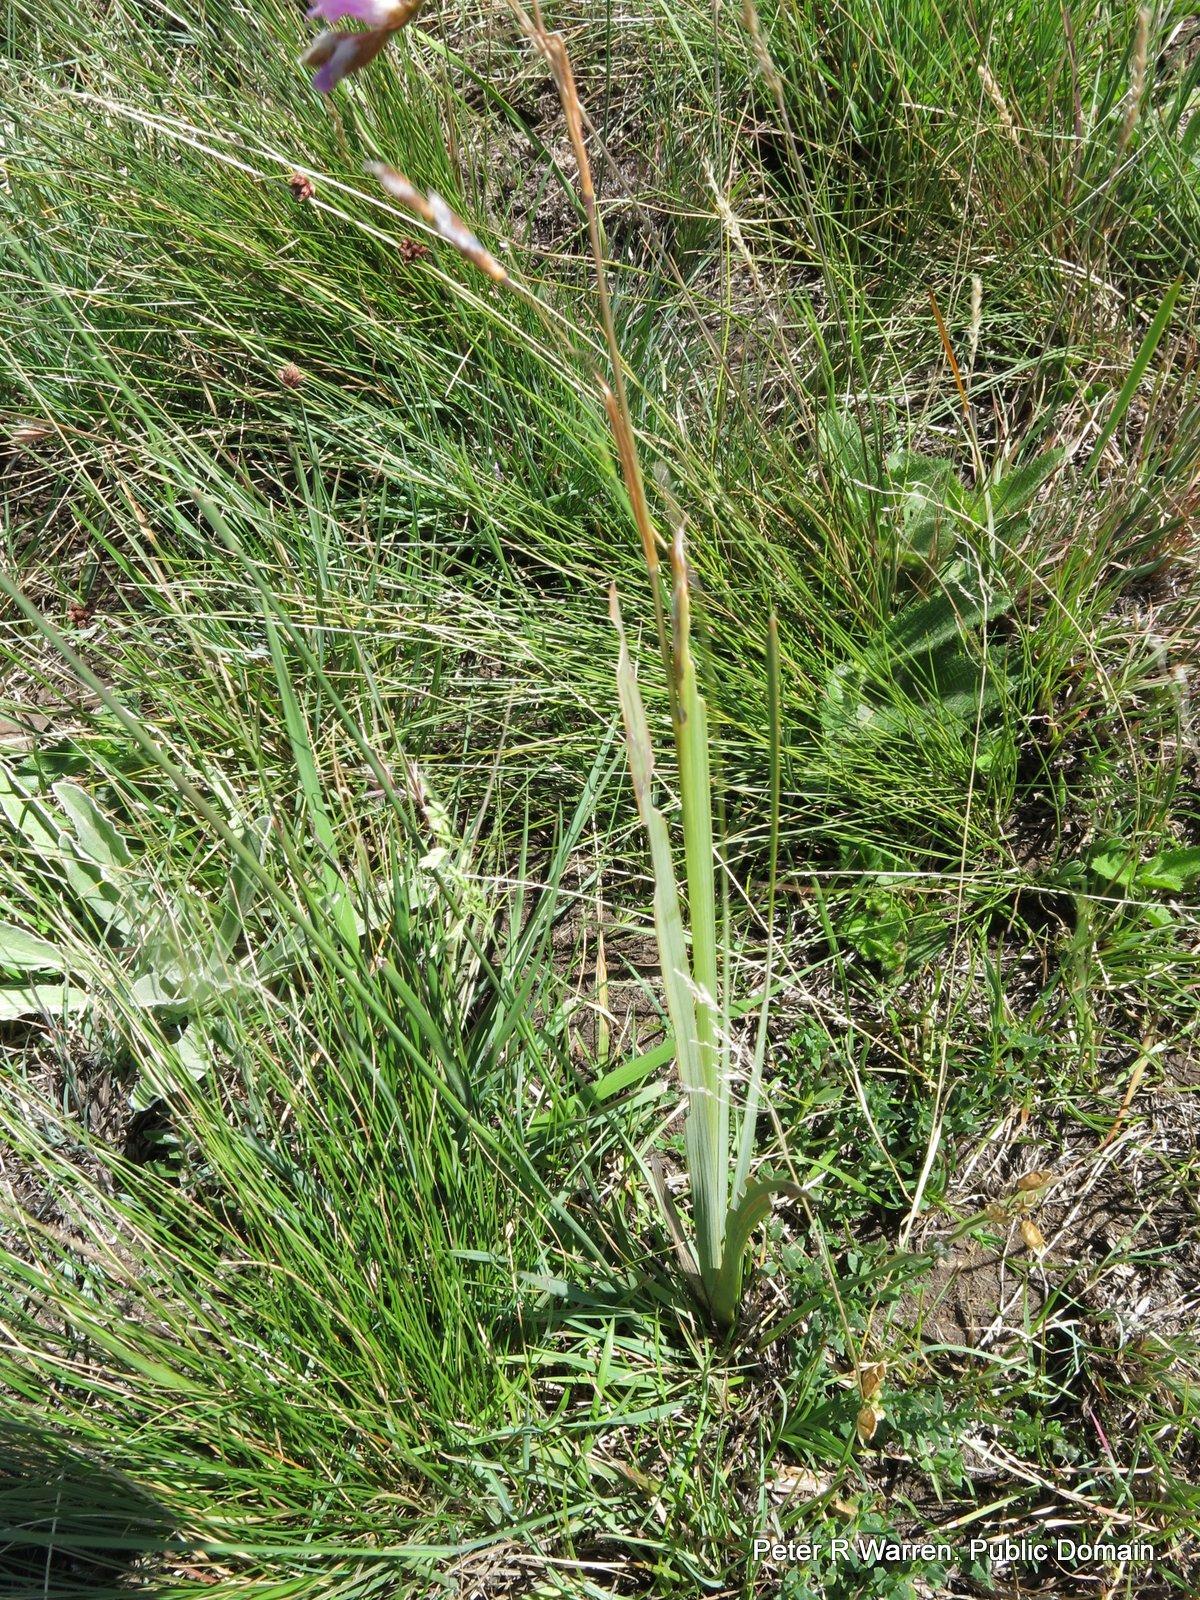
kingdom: Plantae
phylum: Tracheophyta
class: Liliopsida
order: Asparagales
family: Iridaceae
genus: Dierama
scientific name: Dierama dracomontanum
